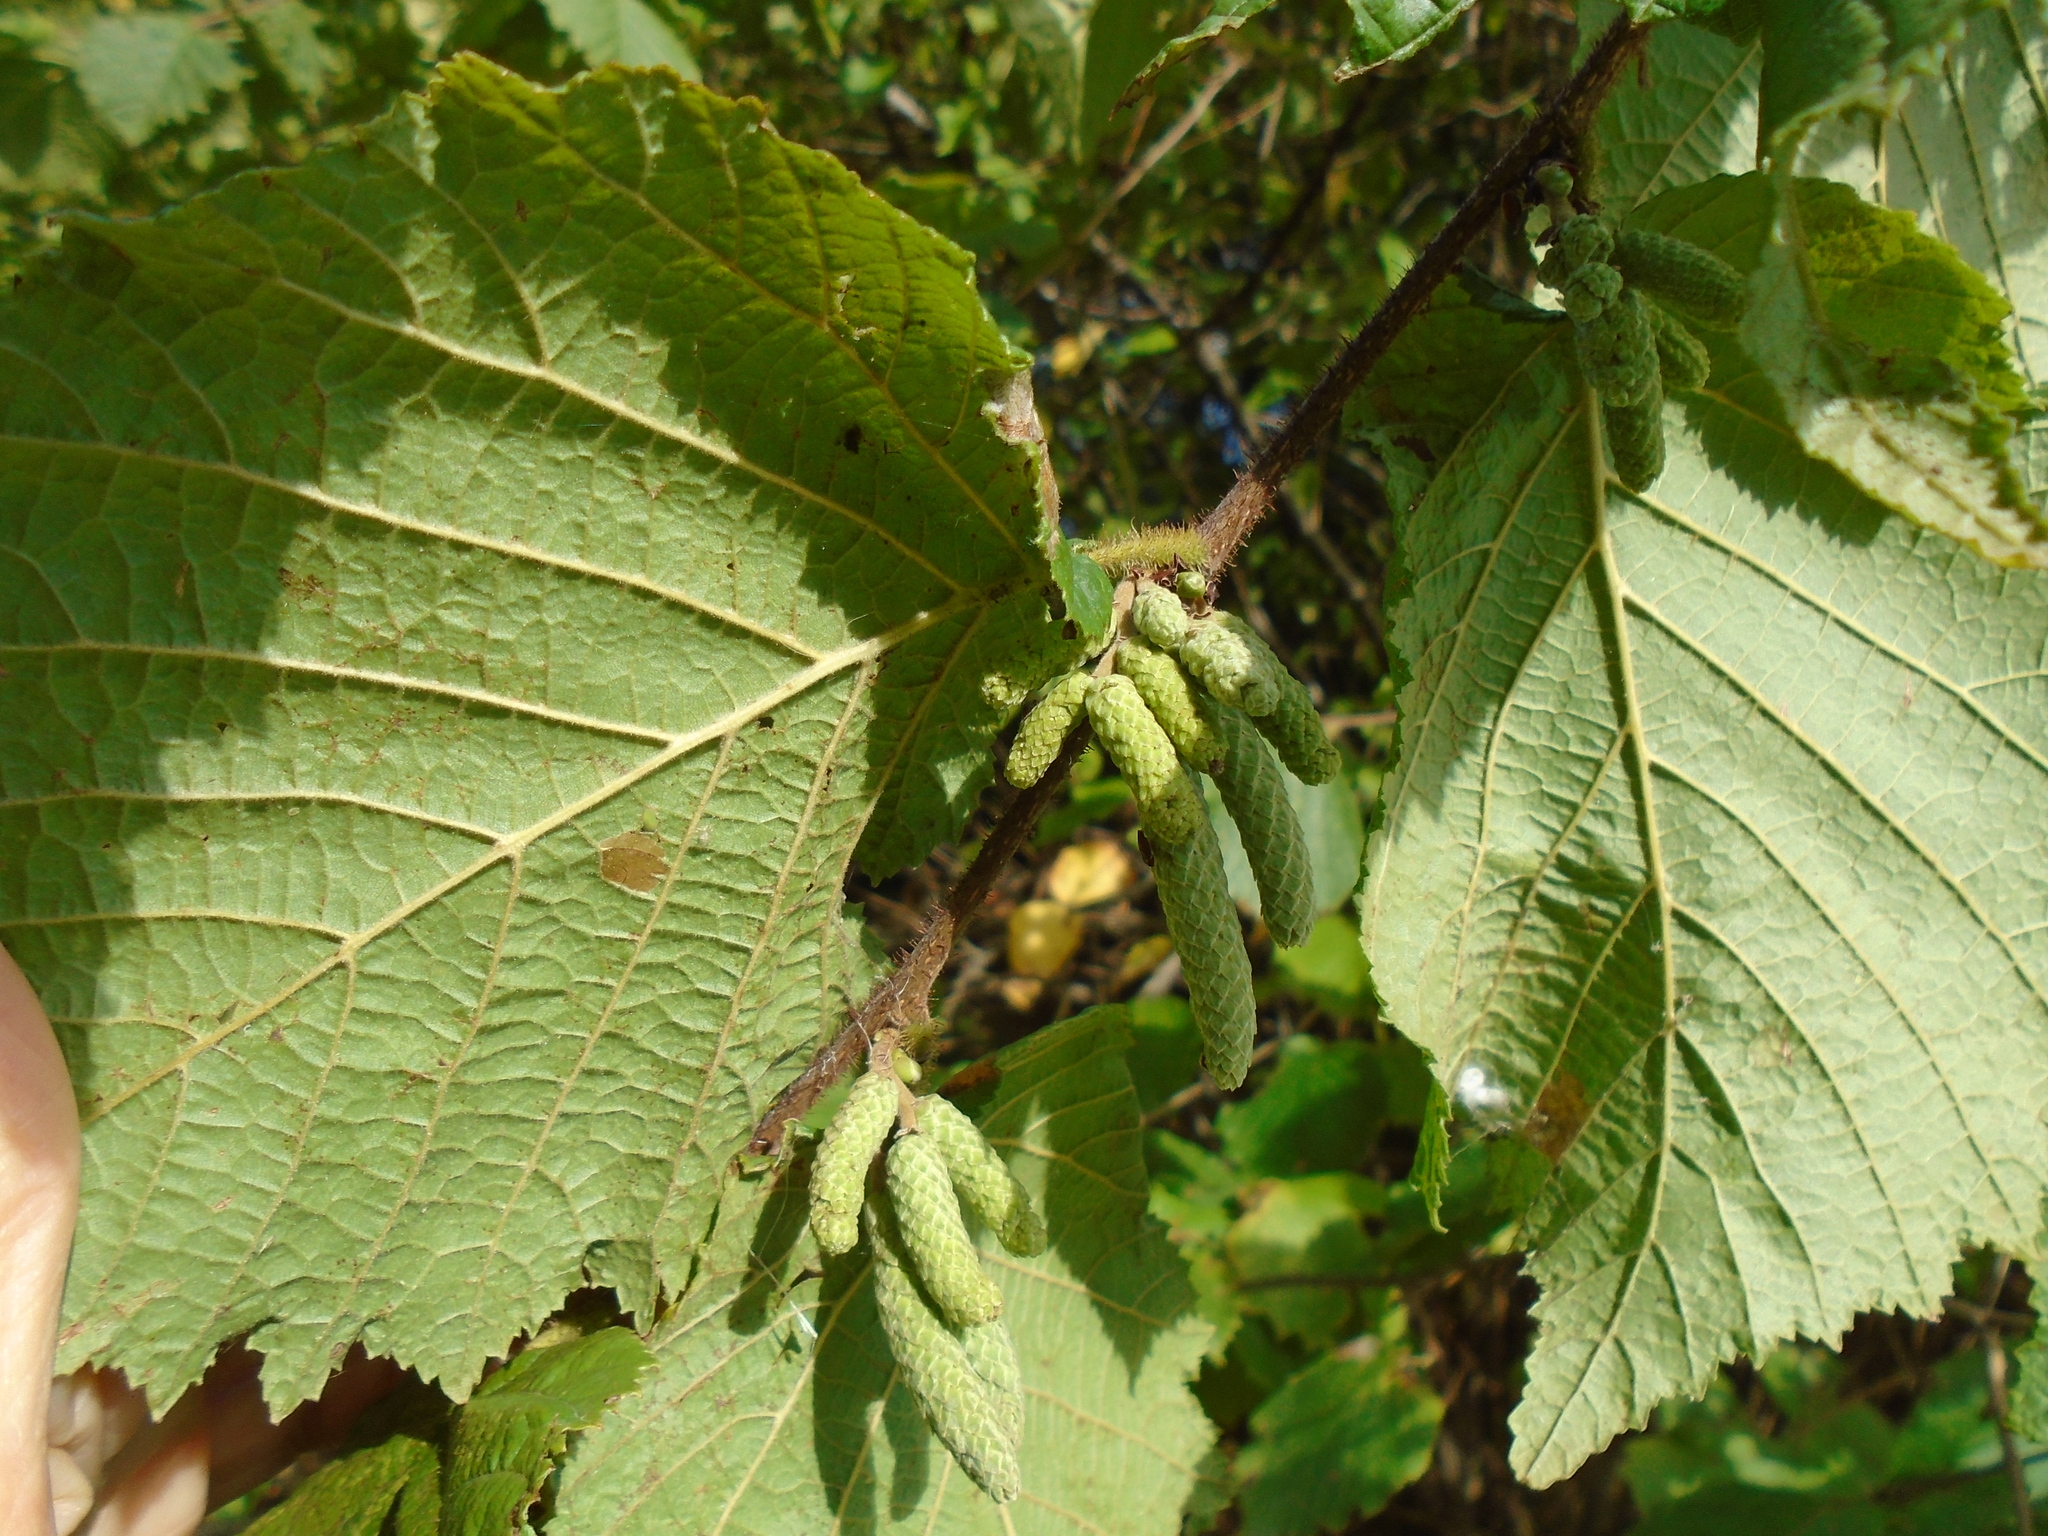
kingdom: Plantae
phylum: Tracheophyta
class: Magnoliopsida
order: Fagales
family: Betulaceae
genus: Corylus
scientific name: Corylus avellana
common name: European hazel
